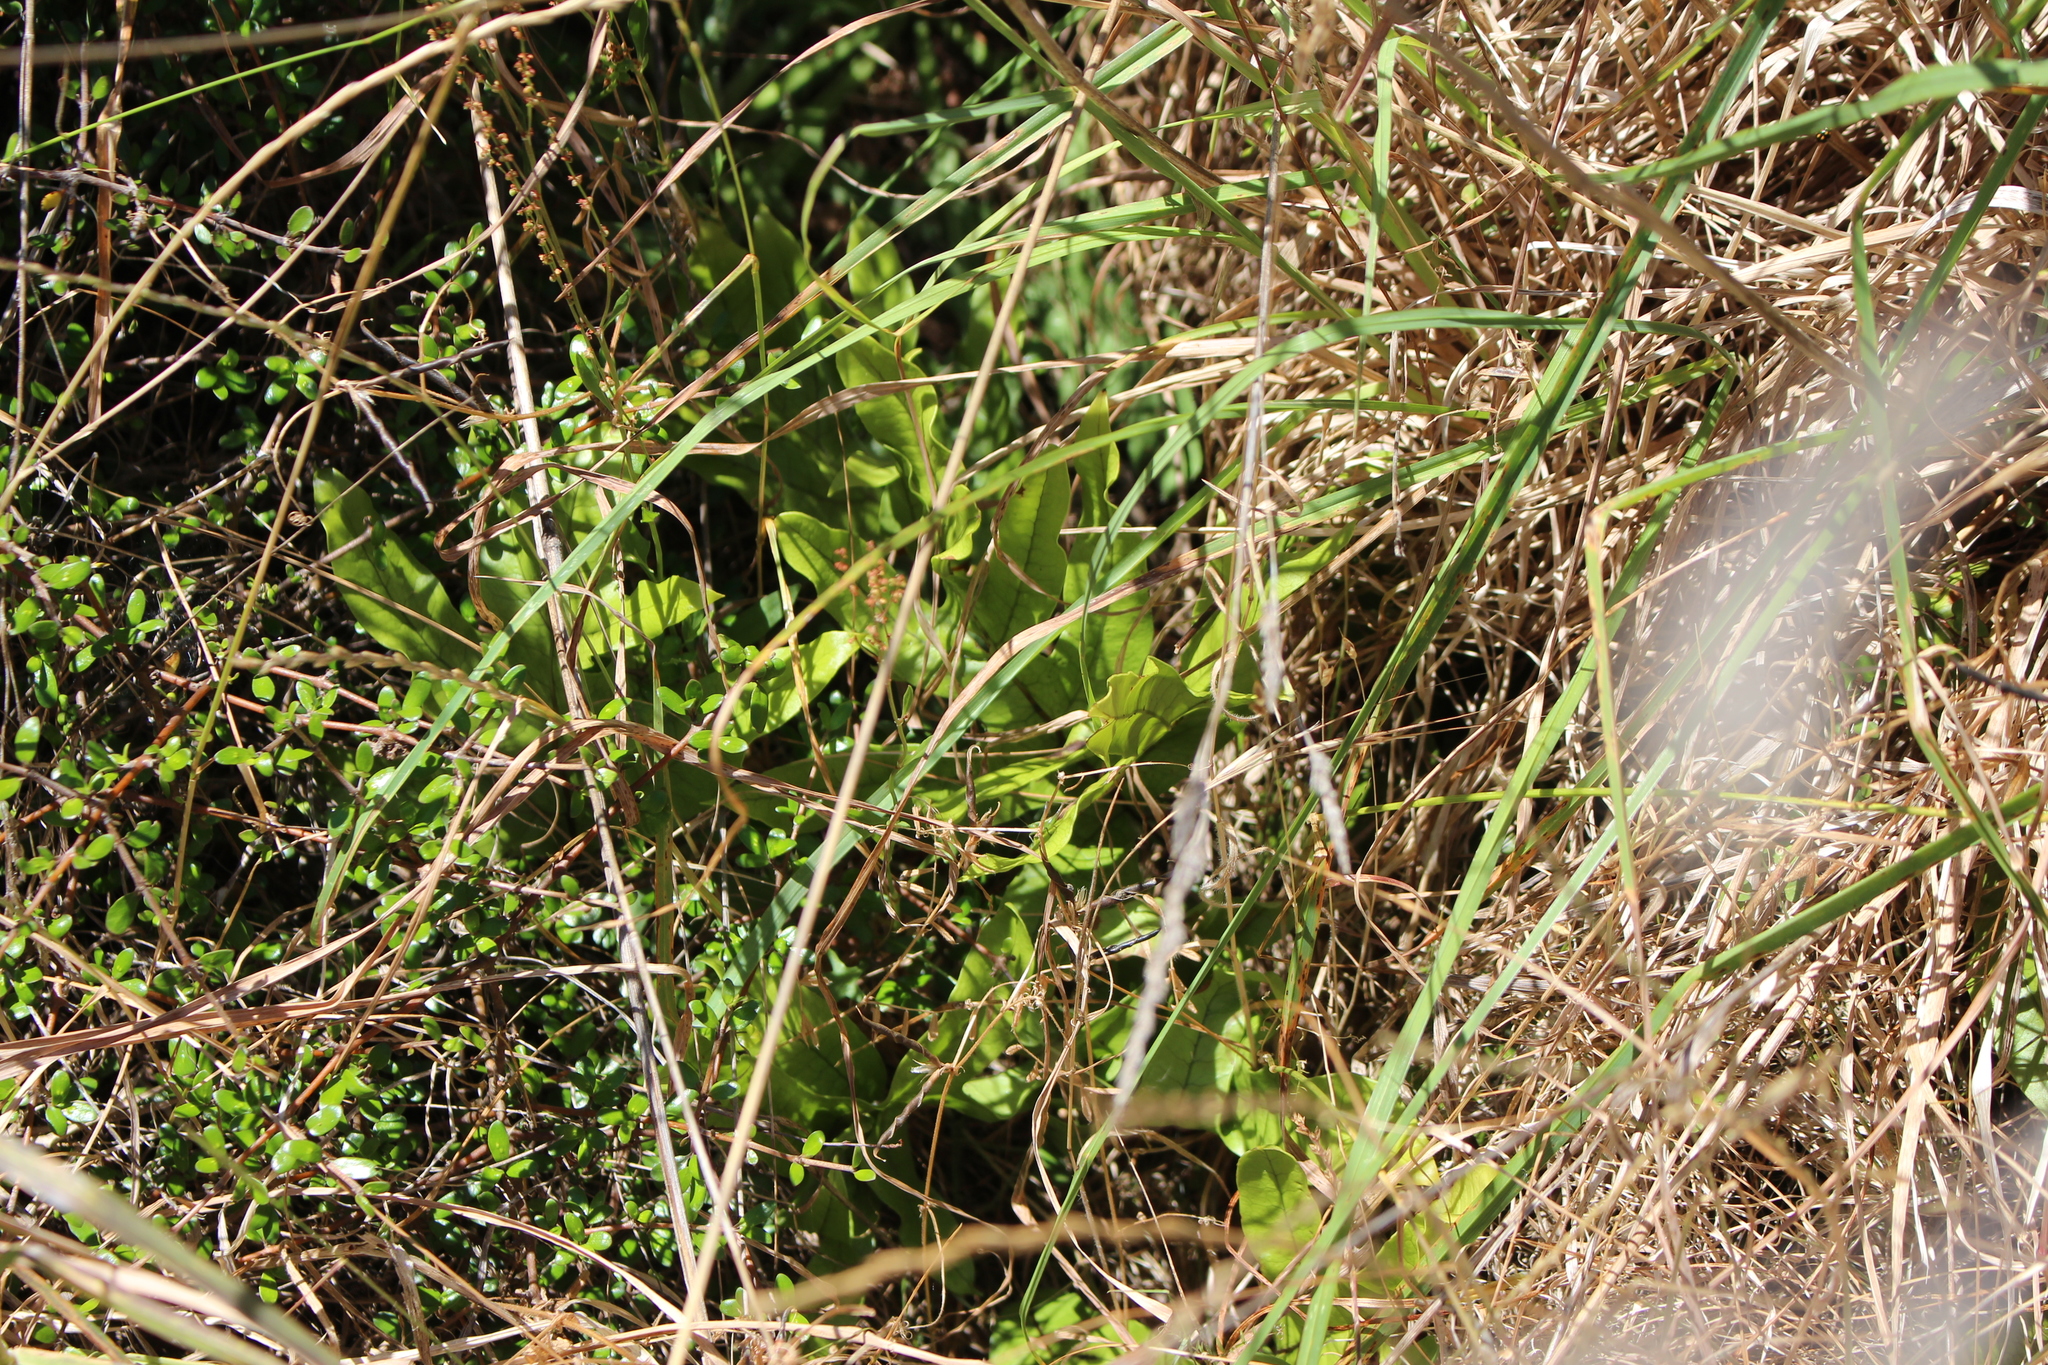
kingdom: Plantae
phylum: Tracheophyta
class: Polypodiopsida
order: Polypodiales
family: Polypodiaceae
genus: Lecanopteris
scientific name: Lecanopteris pustulata
